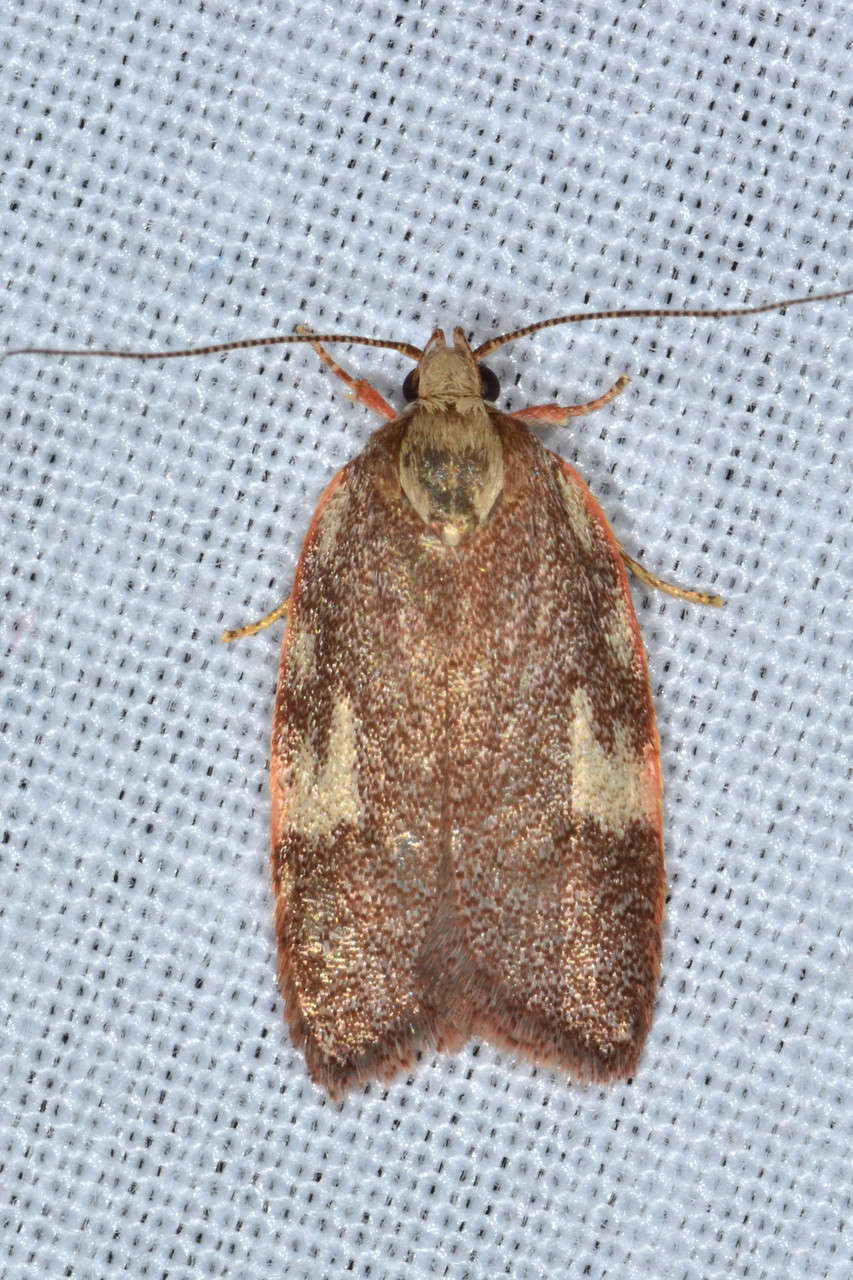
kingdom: Animalia
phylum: Arthropoda
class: Insecta
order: Lepidoptera
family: Oecophoridae
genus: Garrha
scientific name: Garrha platyporphyra
